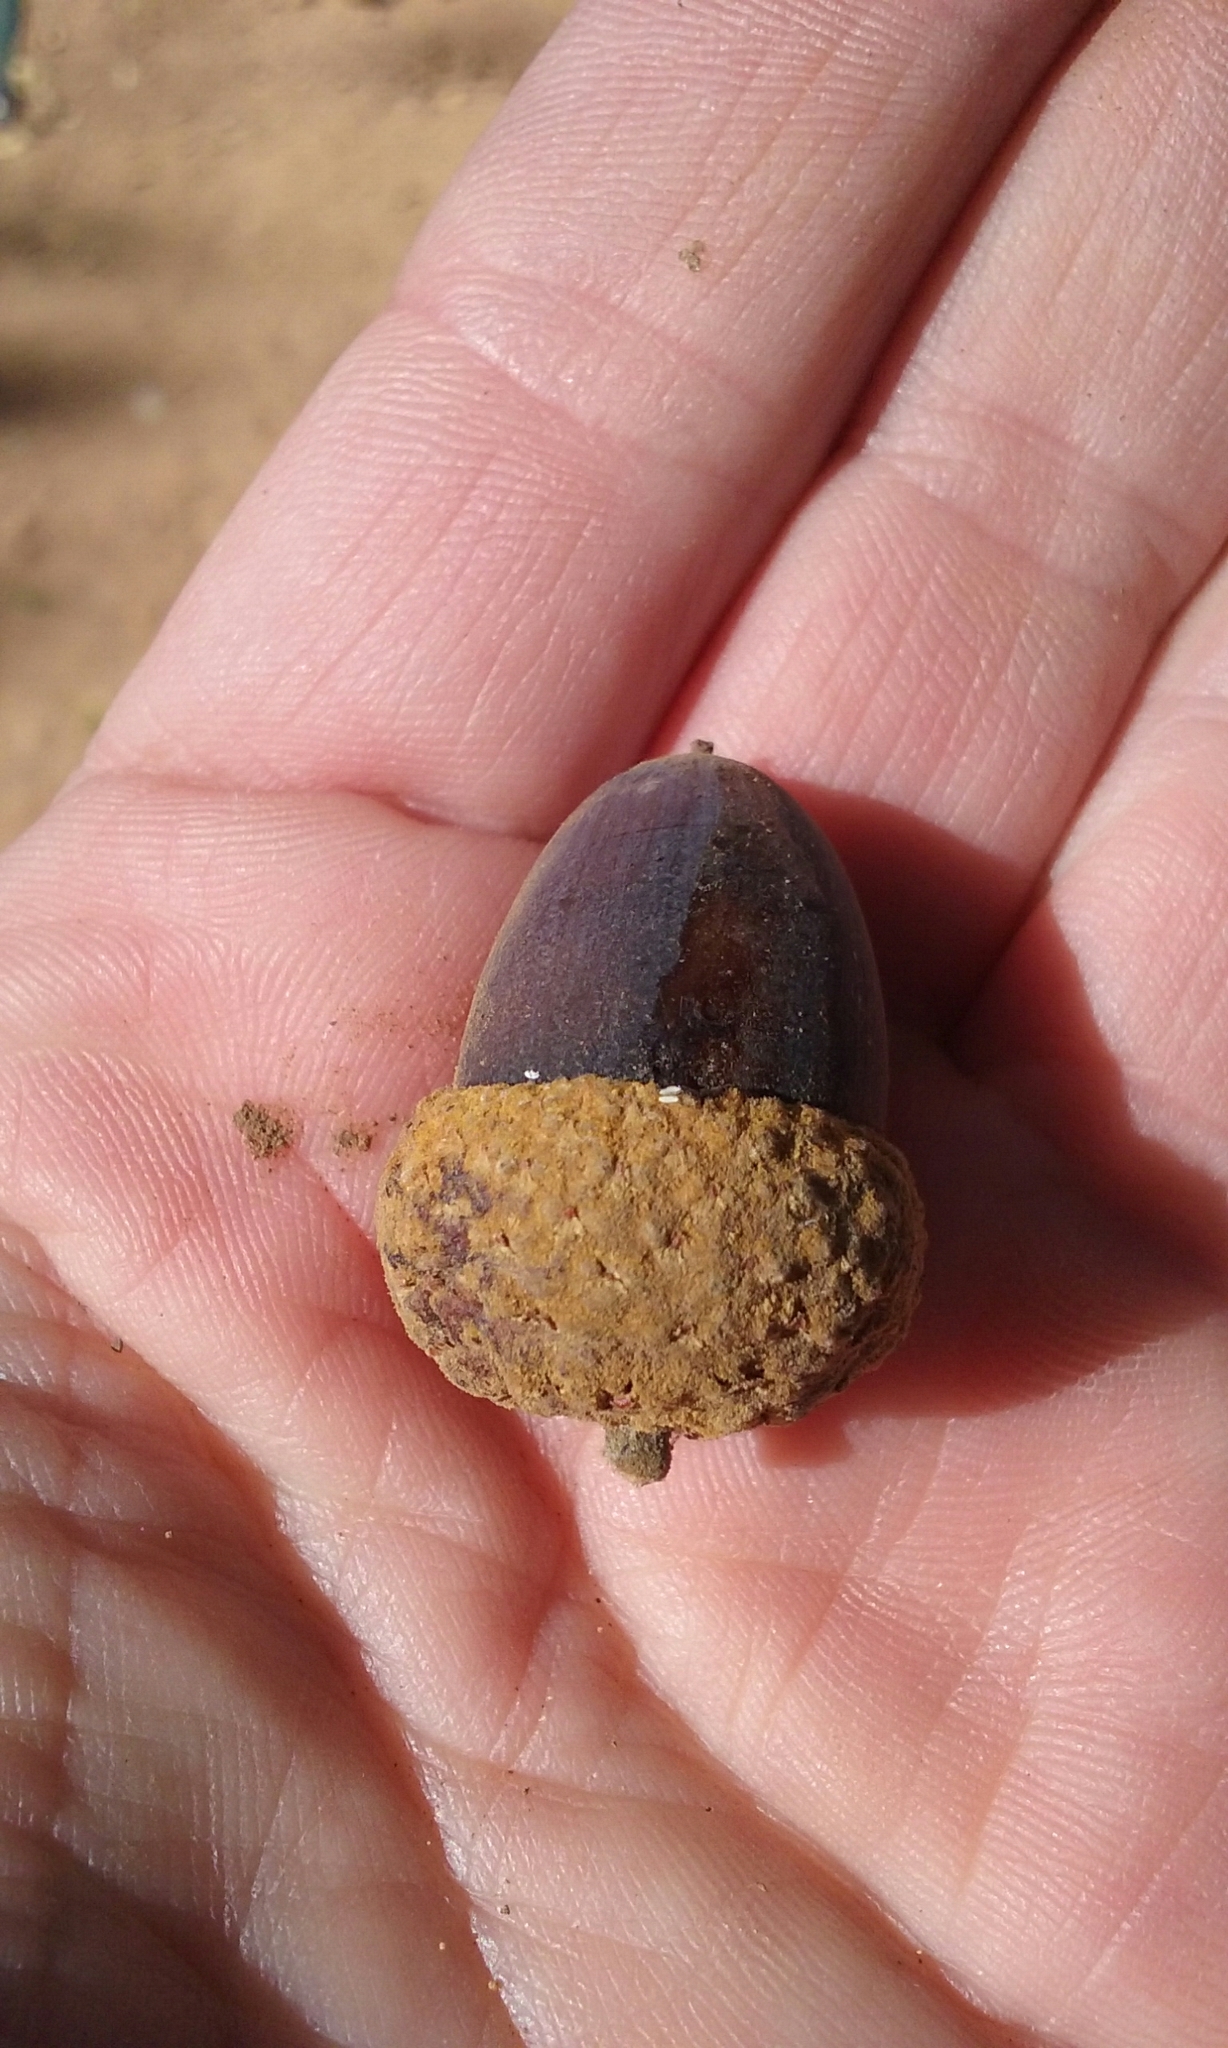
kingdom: Plantae
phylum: Tracheophyta
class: Magnoliopsida
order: Fagales
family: Fagaceae
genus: Quercus
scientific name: Quercus chrysolepis
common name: Canyon live oak
